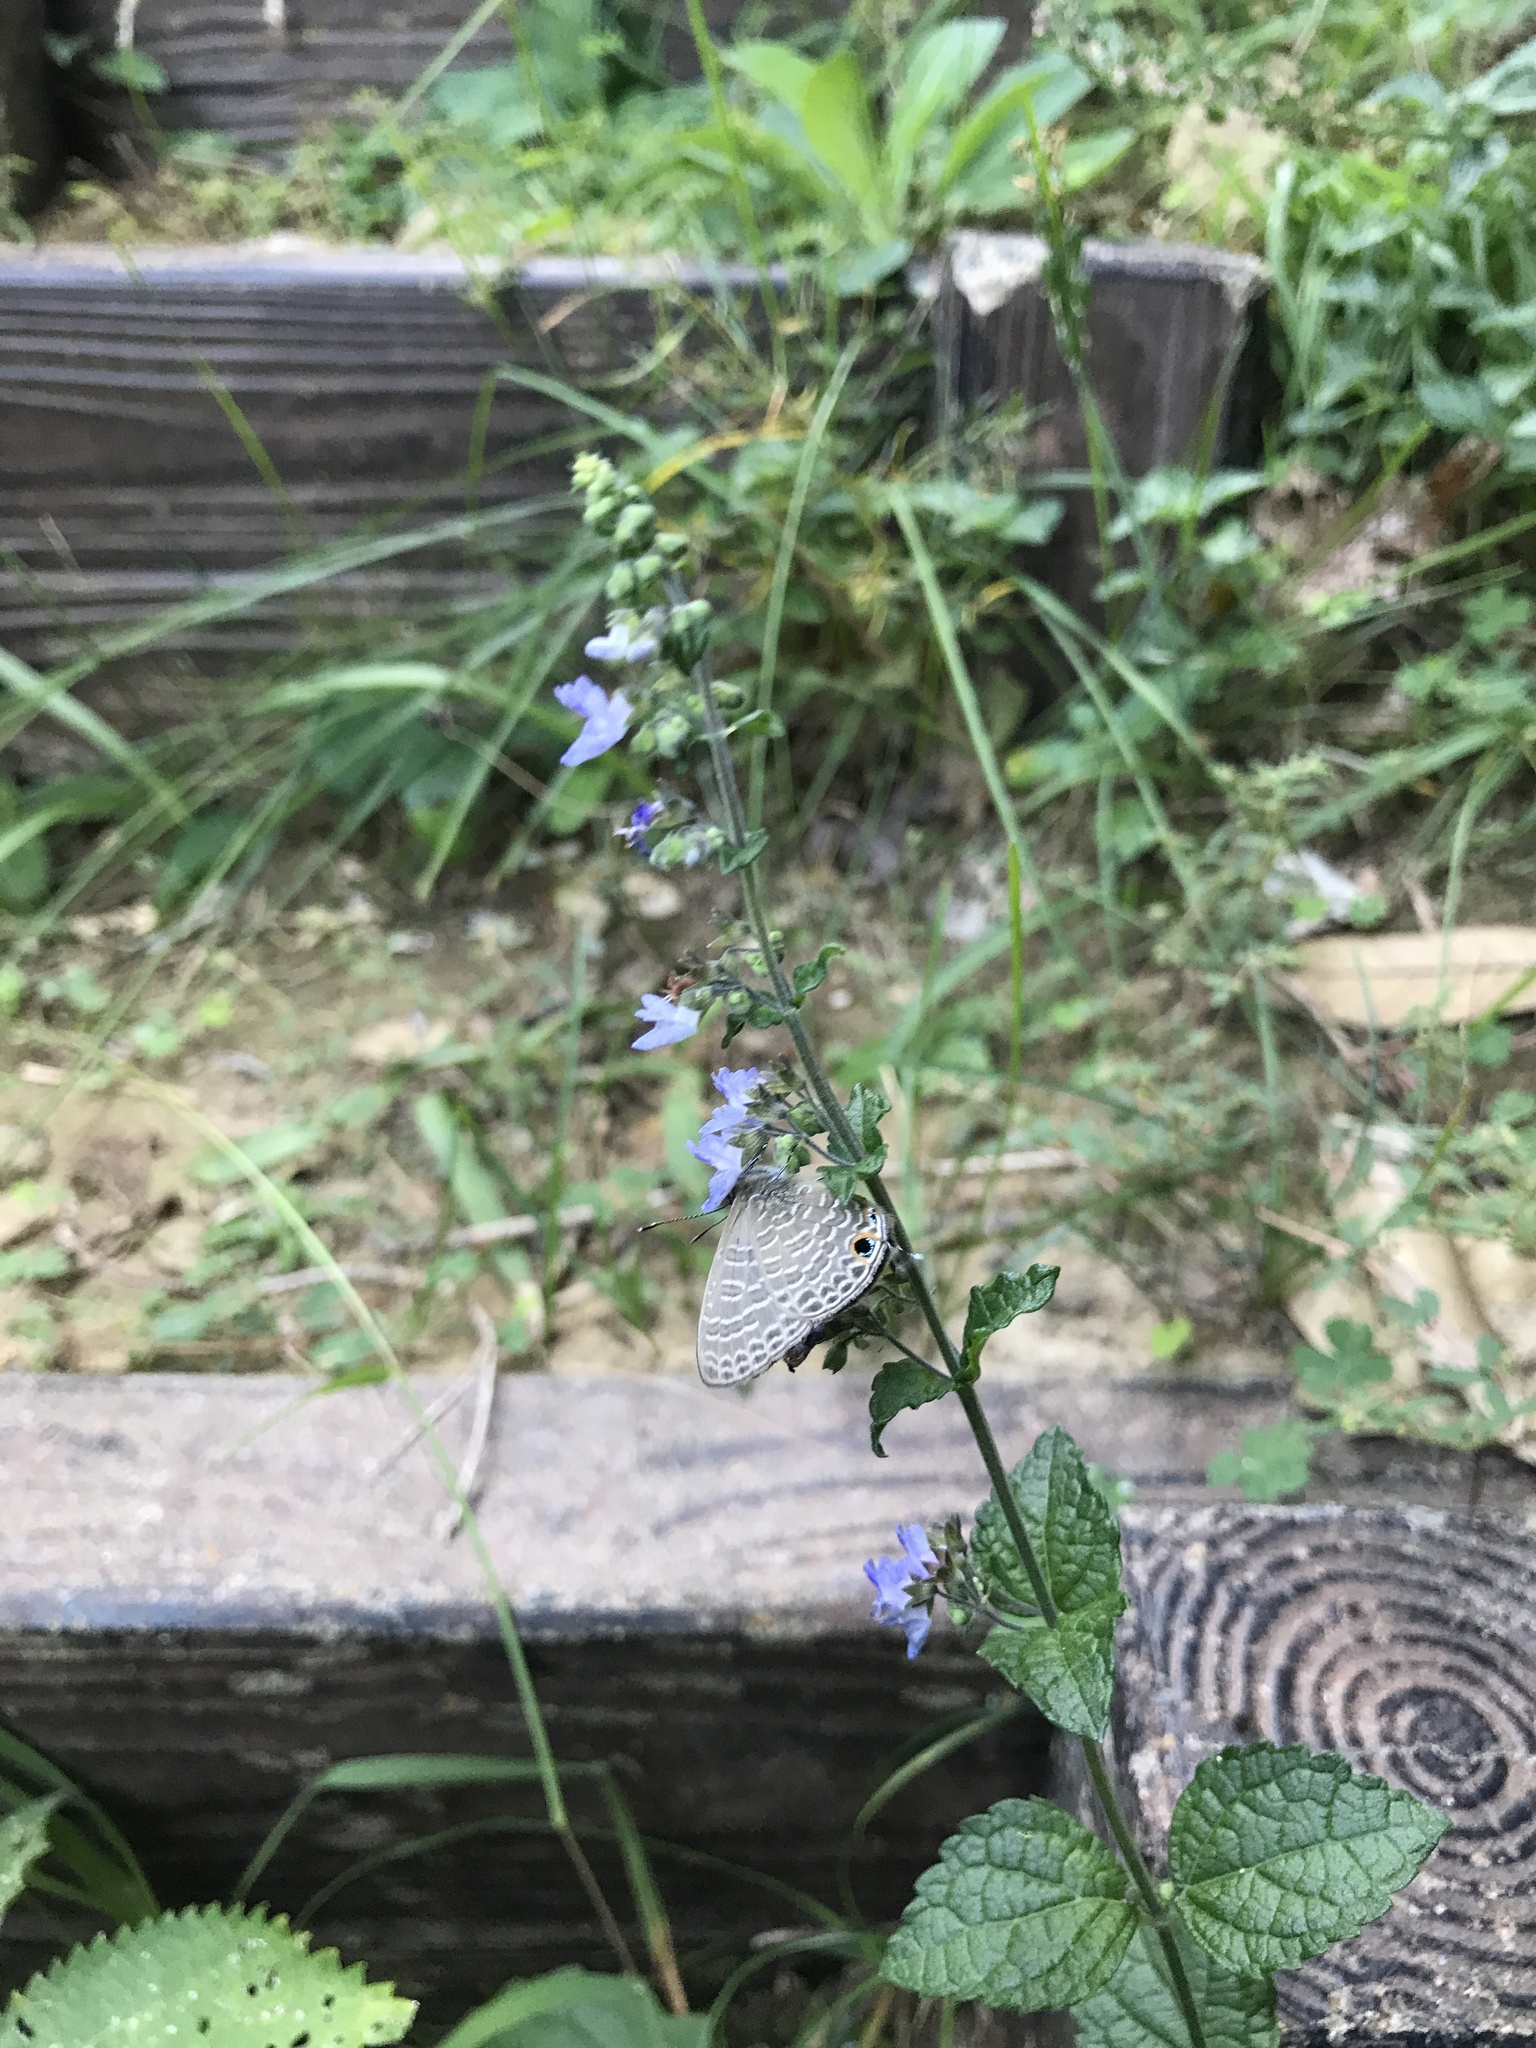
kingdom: Plantae
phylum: Tracheophyta
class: Magnoliopsida
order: Lamiales
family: Lamiaceae
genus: Isodon
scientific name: Isodon inflexus
